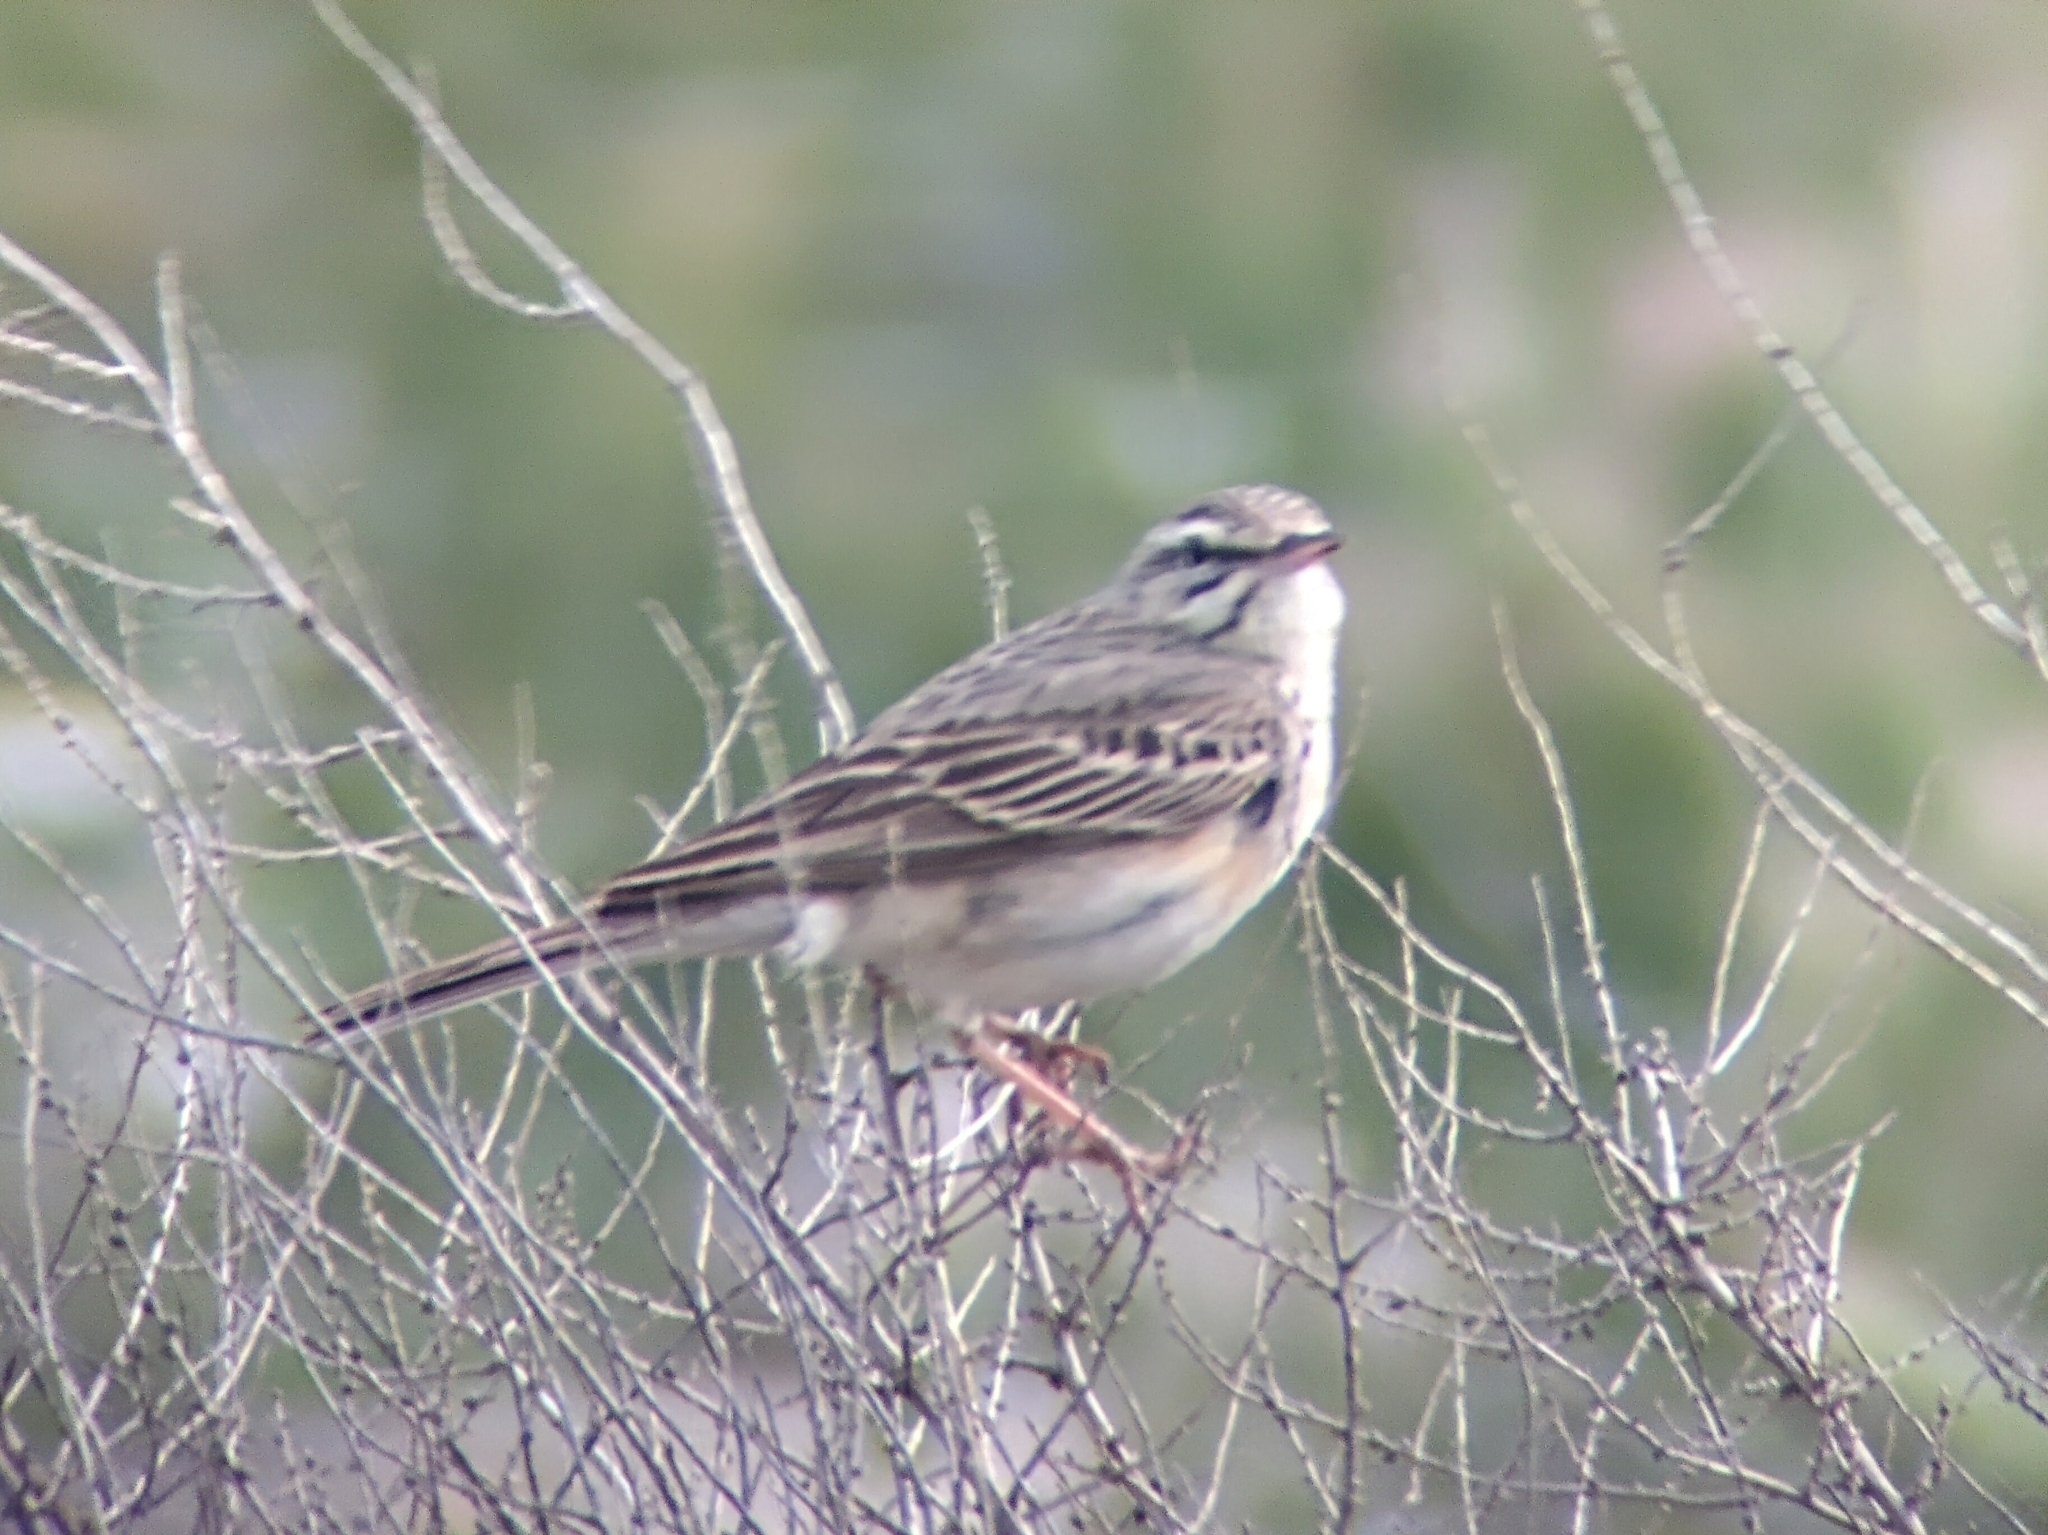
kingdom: Animalia
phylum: Chordata
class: Aves
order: Passeriformes
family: Motacillidae
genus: Anthus
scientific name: Anthus campestris
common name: Tawny pipit
